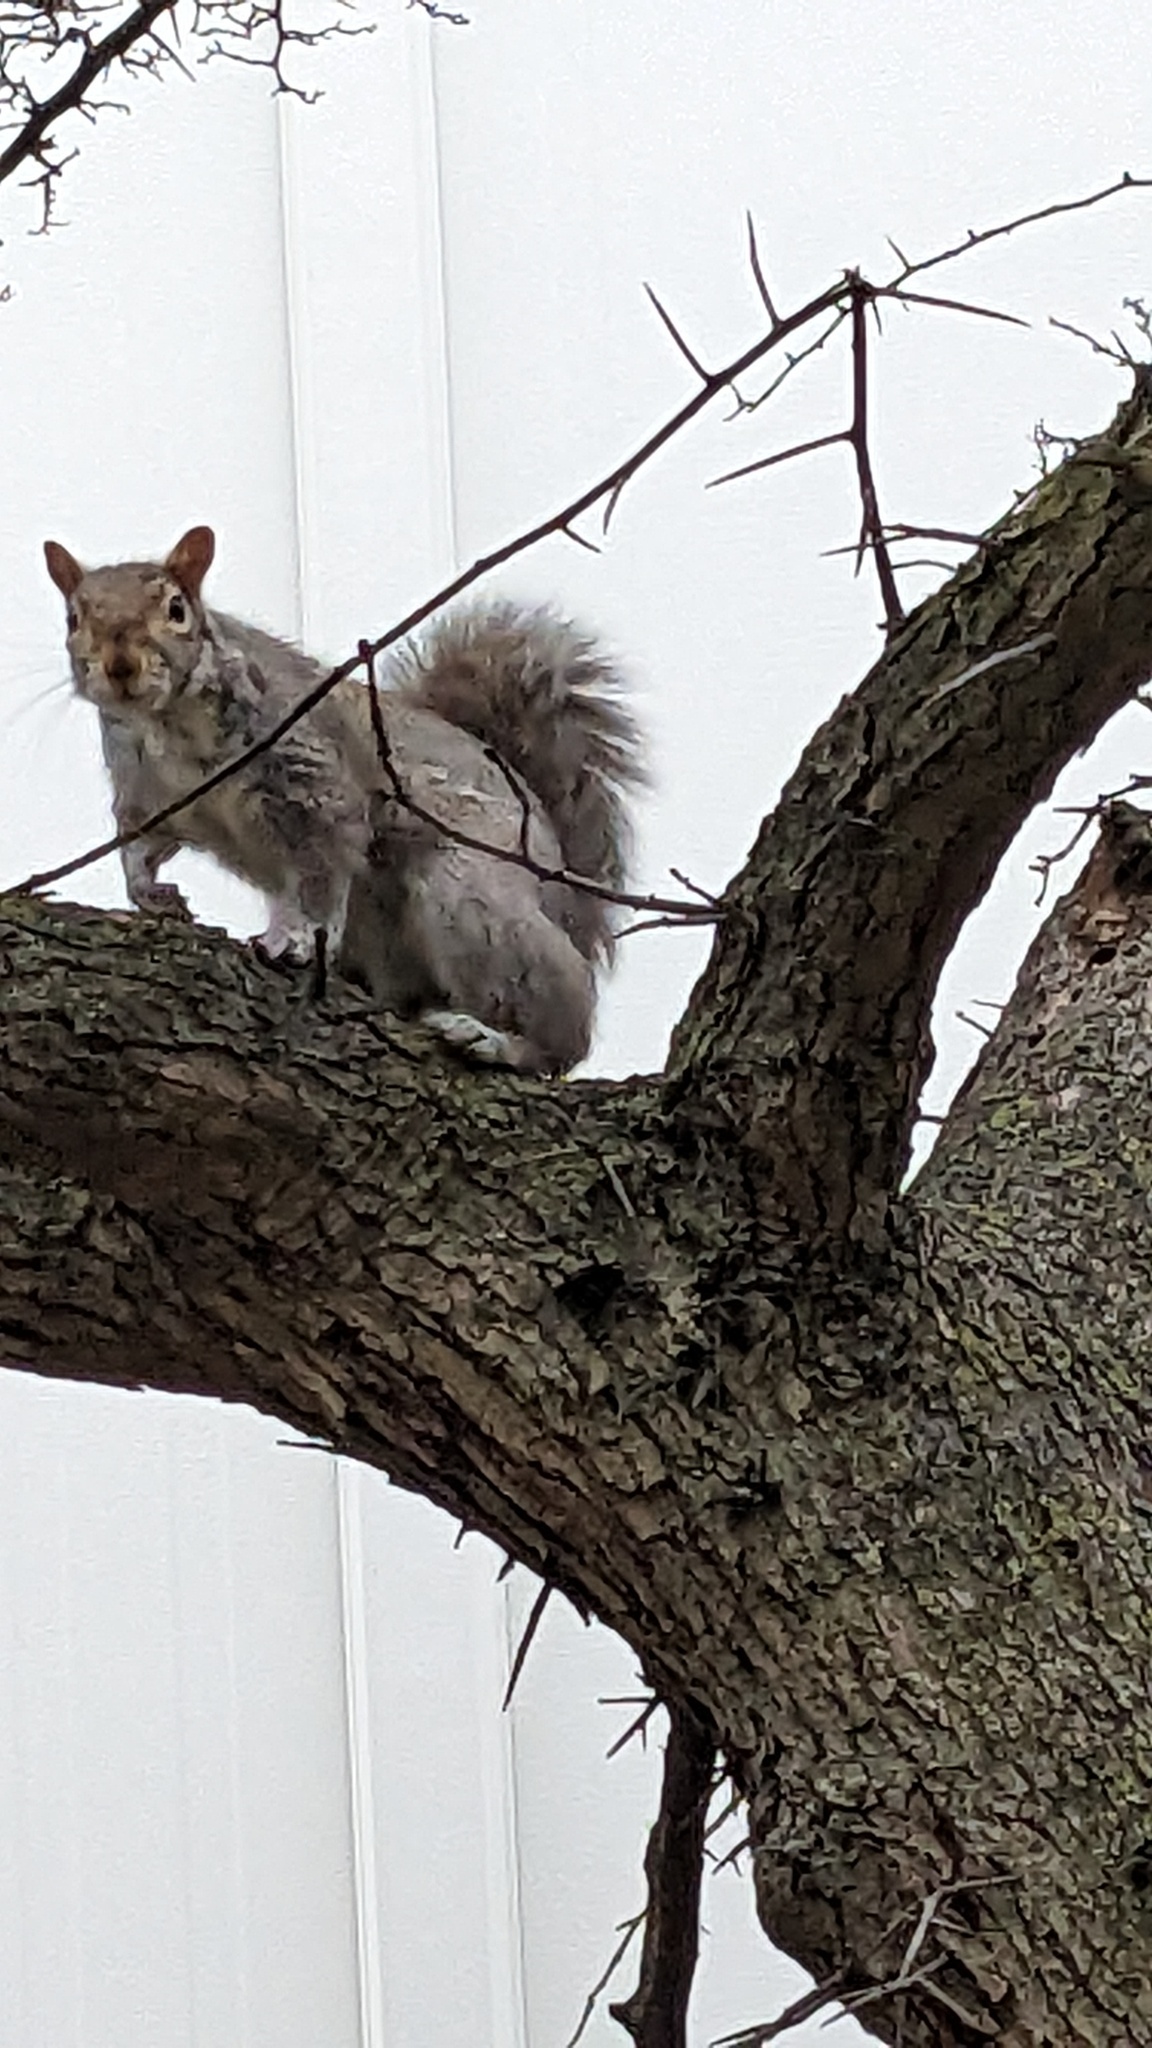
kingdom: Animalia
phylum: Chordata
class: Mammalia
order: Rodentia
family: Sciuridae
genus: Sciurus
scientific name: Sciurus carolinensis
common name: Eastern gray squirrel
